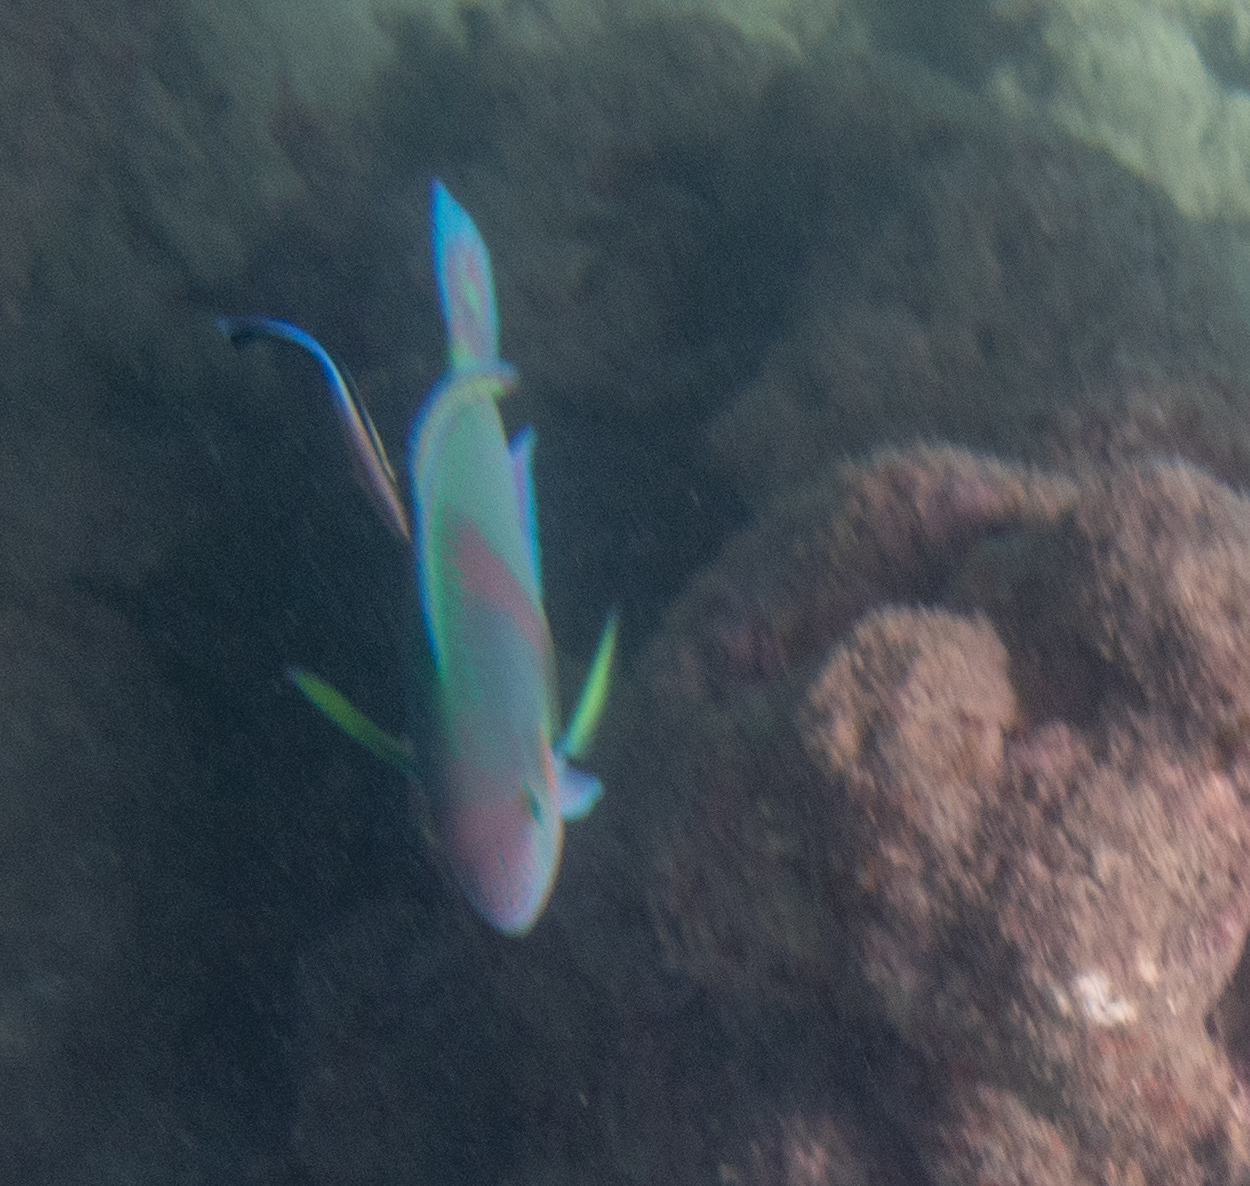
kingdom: Animalia
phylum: Chordata
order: Perciformes
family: Scaridae
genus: Scarus
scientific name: Scarus rivulatus
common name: Surf parrotfish
